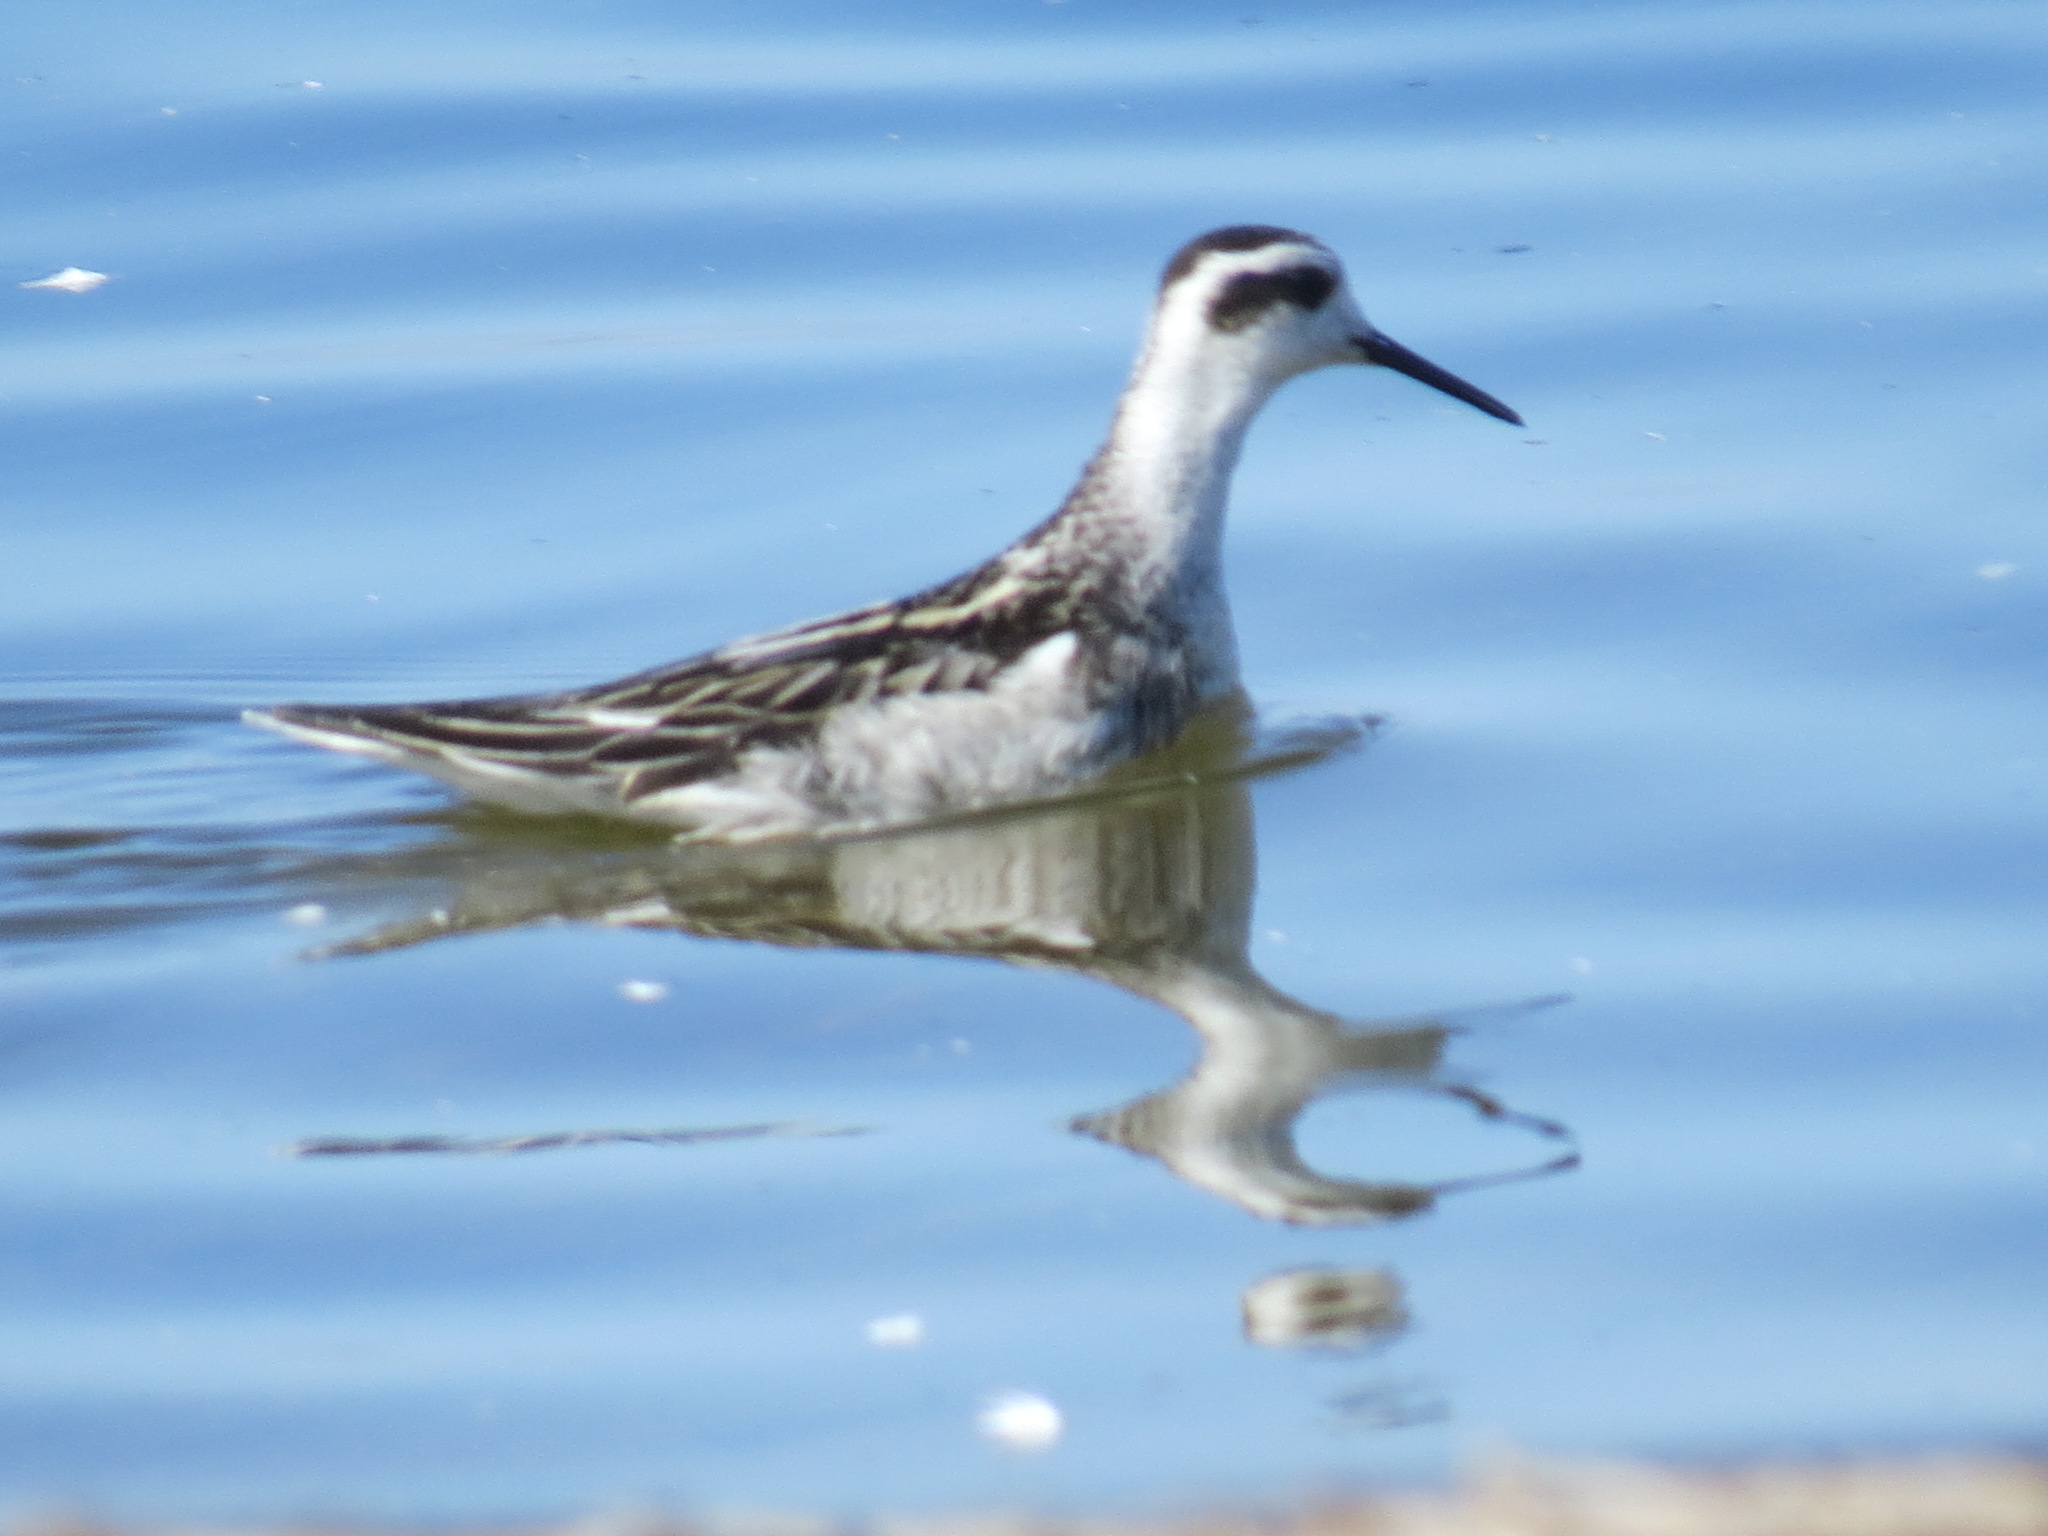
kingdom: Animalia
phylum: Chordata
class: Aves
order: Charadriiformes
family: Scolopacidae
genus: Phalaropus
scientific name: Phalaropus lobatus
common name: Red-necked phalarope
